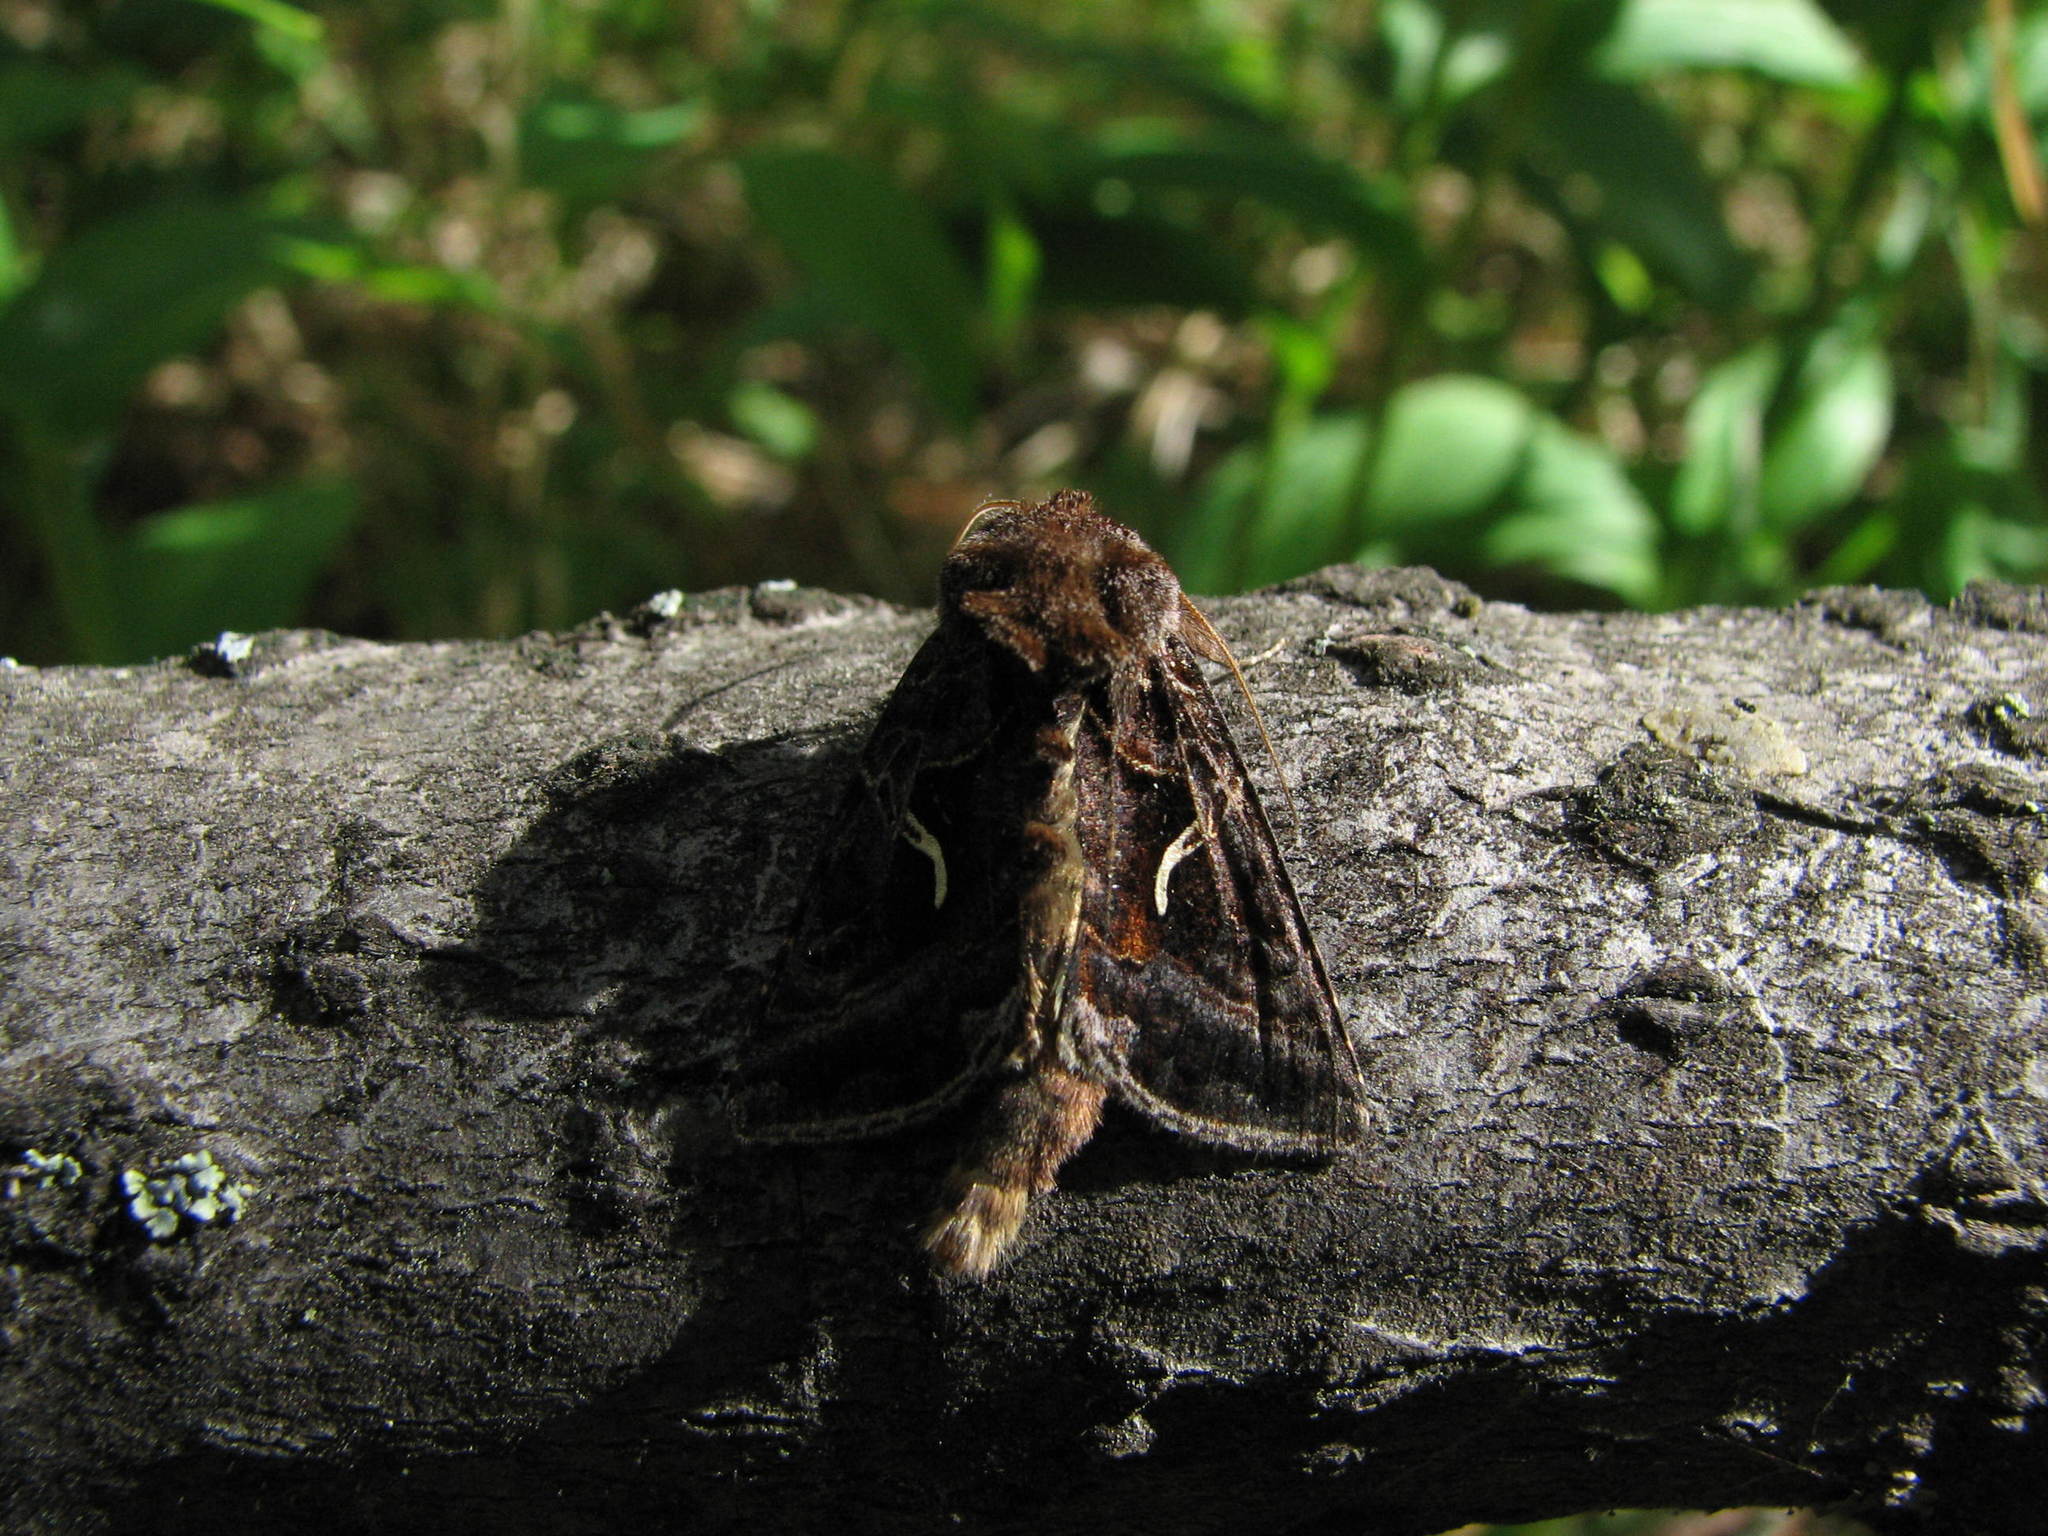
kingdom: Animalia
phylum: Arthropoda
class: Insecta
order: Lepidoptera
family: Noctuidae
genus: Autographa
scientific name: Autographa sansoni
